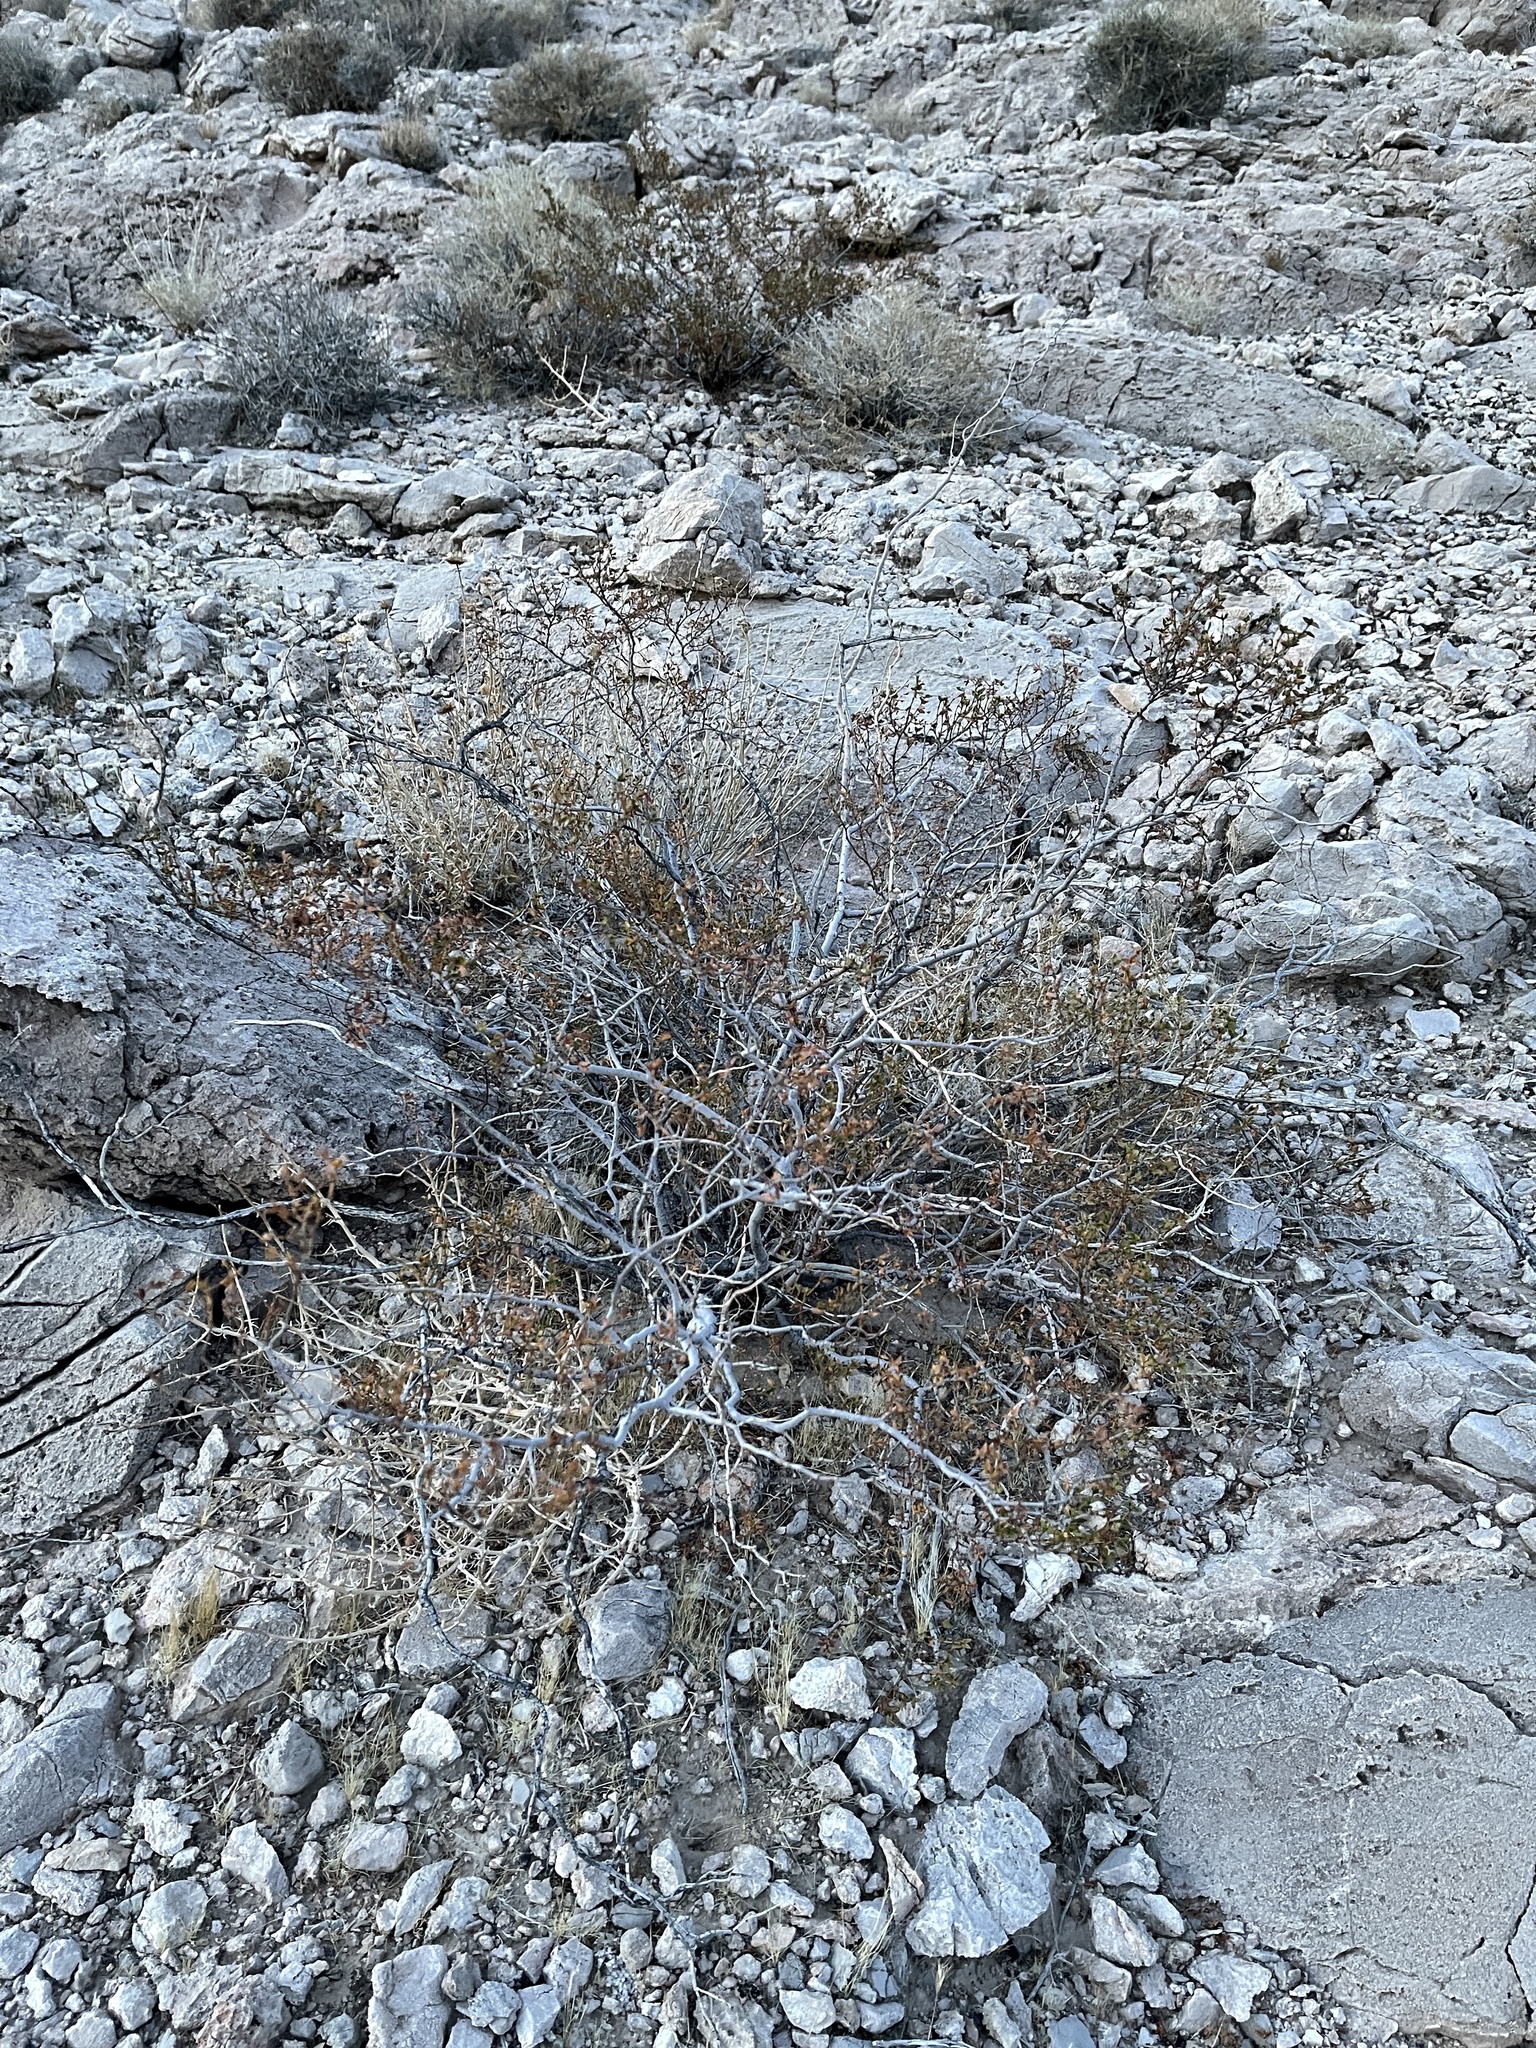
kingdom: Plantae
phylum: Tracheophyta
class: Magnoliopsida
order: Zygophyllales
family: Zygophyllaceae
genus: Larrea
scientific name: Larrea tridentata
